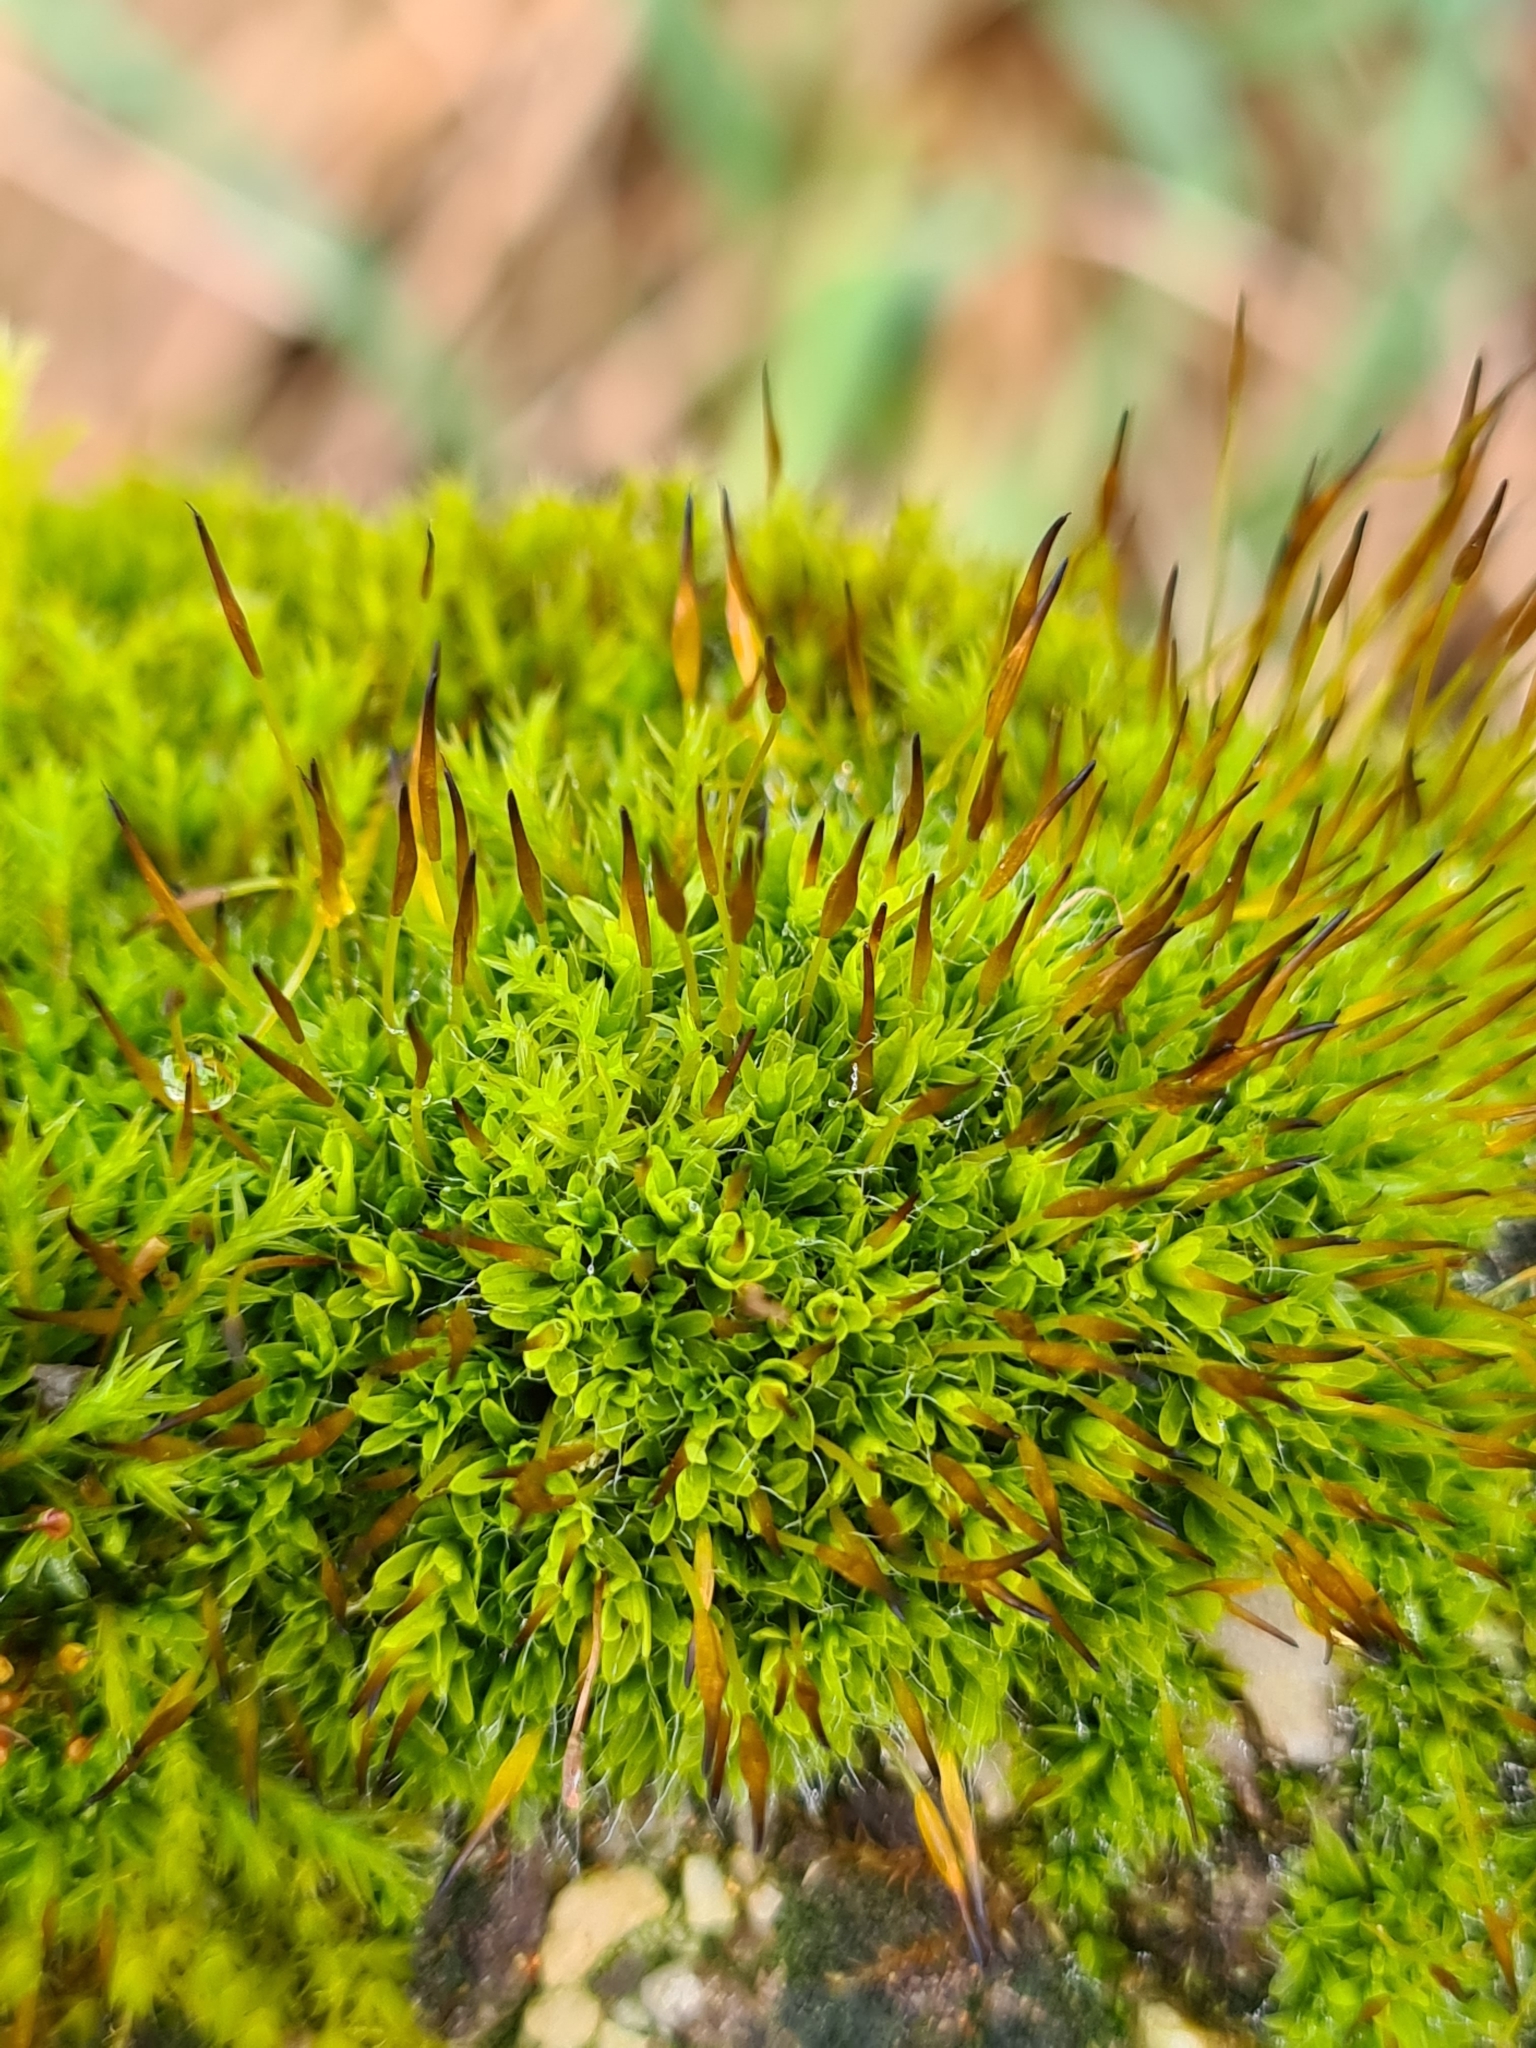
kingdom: Plantae
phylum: Bryophyta
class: Bryopsida
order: Pottiales
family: Pottiaceae
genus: Tortula
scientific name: Tortula muralis
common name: Wall screw-moss
